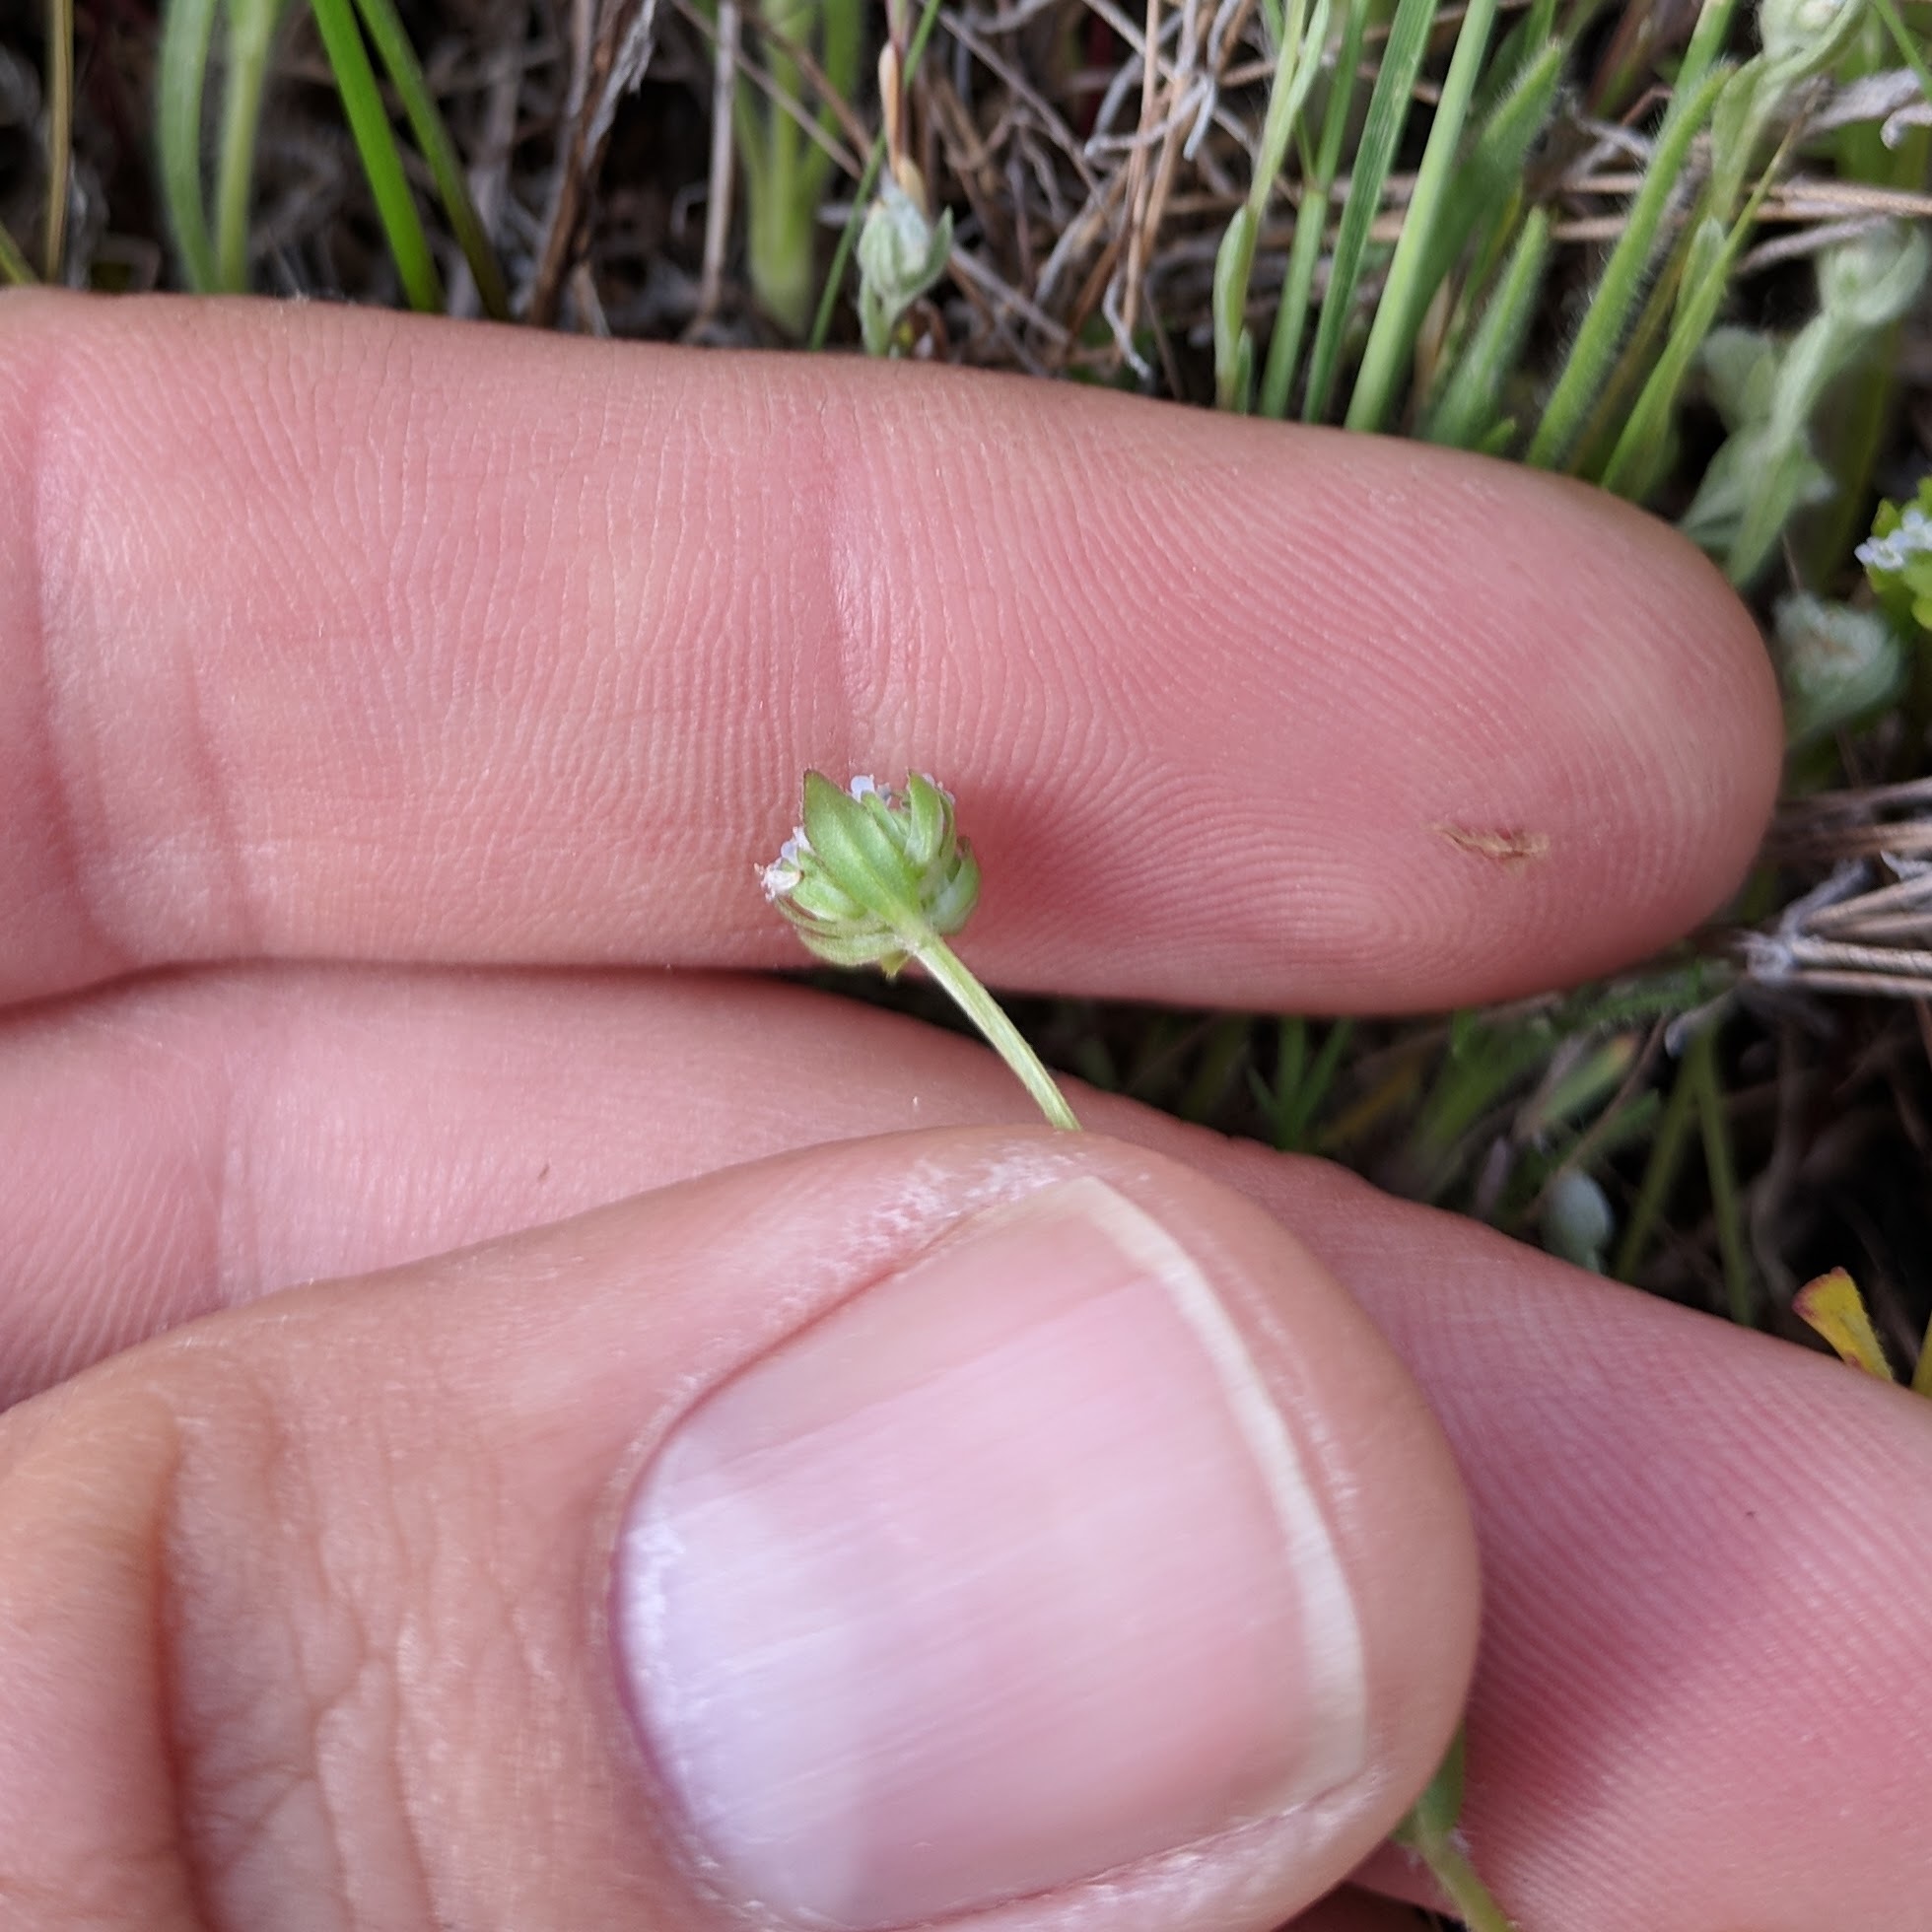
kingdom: Plantae
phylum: Tracheophyta
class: Magnoliopsida
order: Dipsacales
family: Caprifoliaceae
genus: Valerianella
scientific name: Valerianella locusta
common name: Common cornsalad
